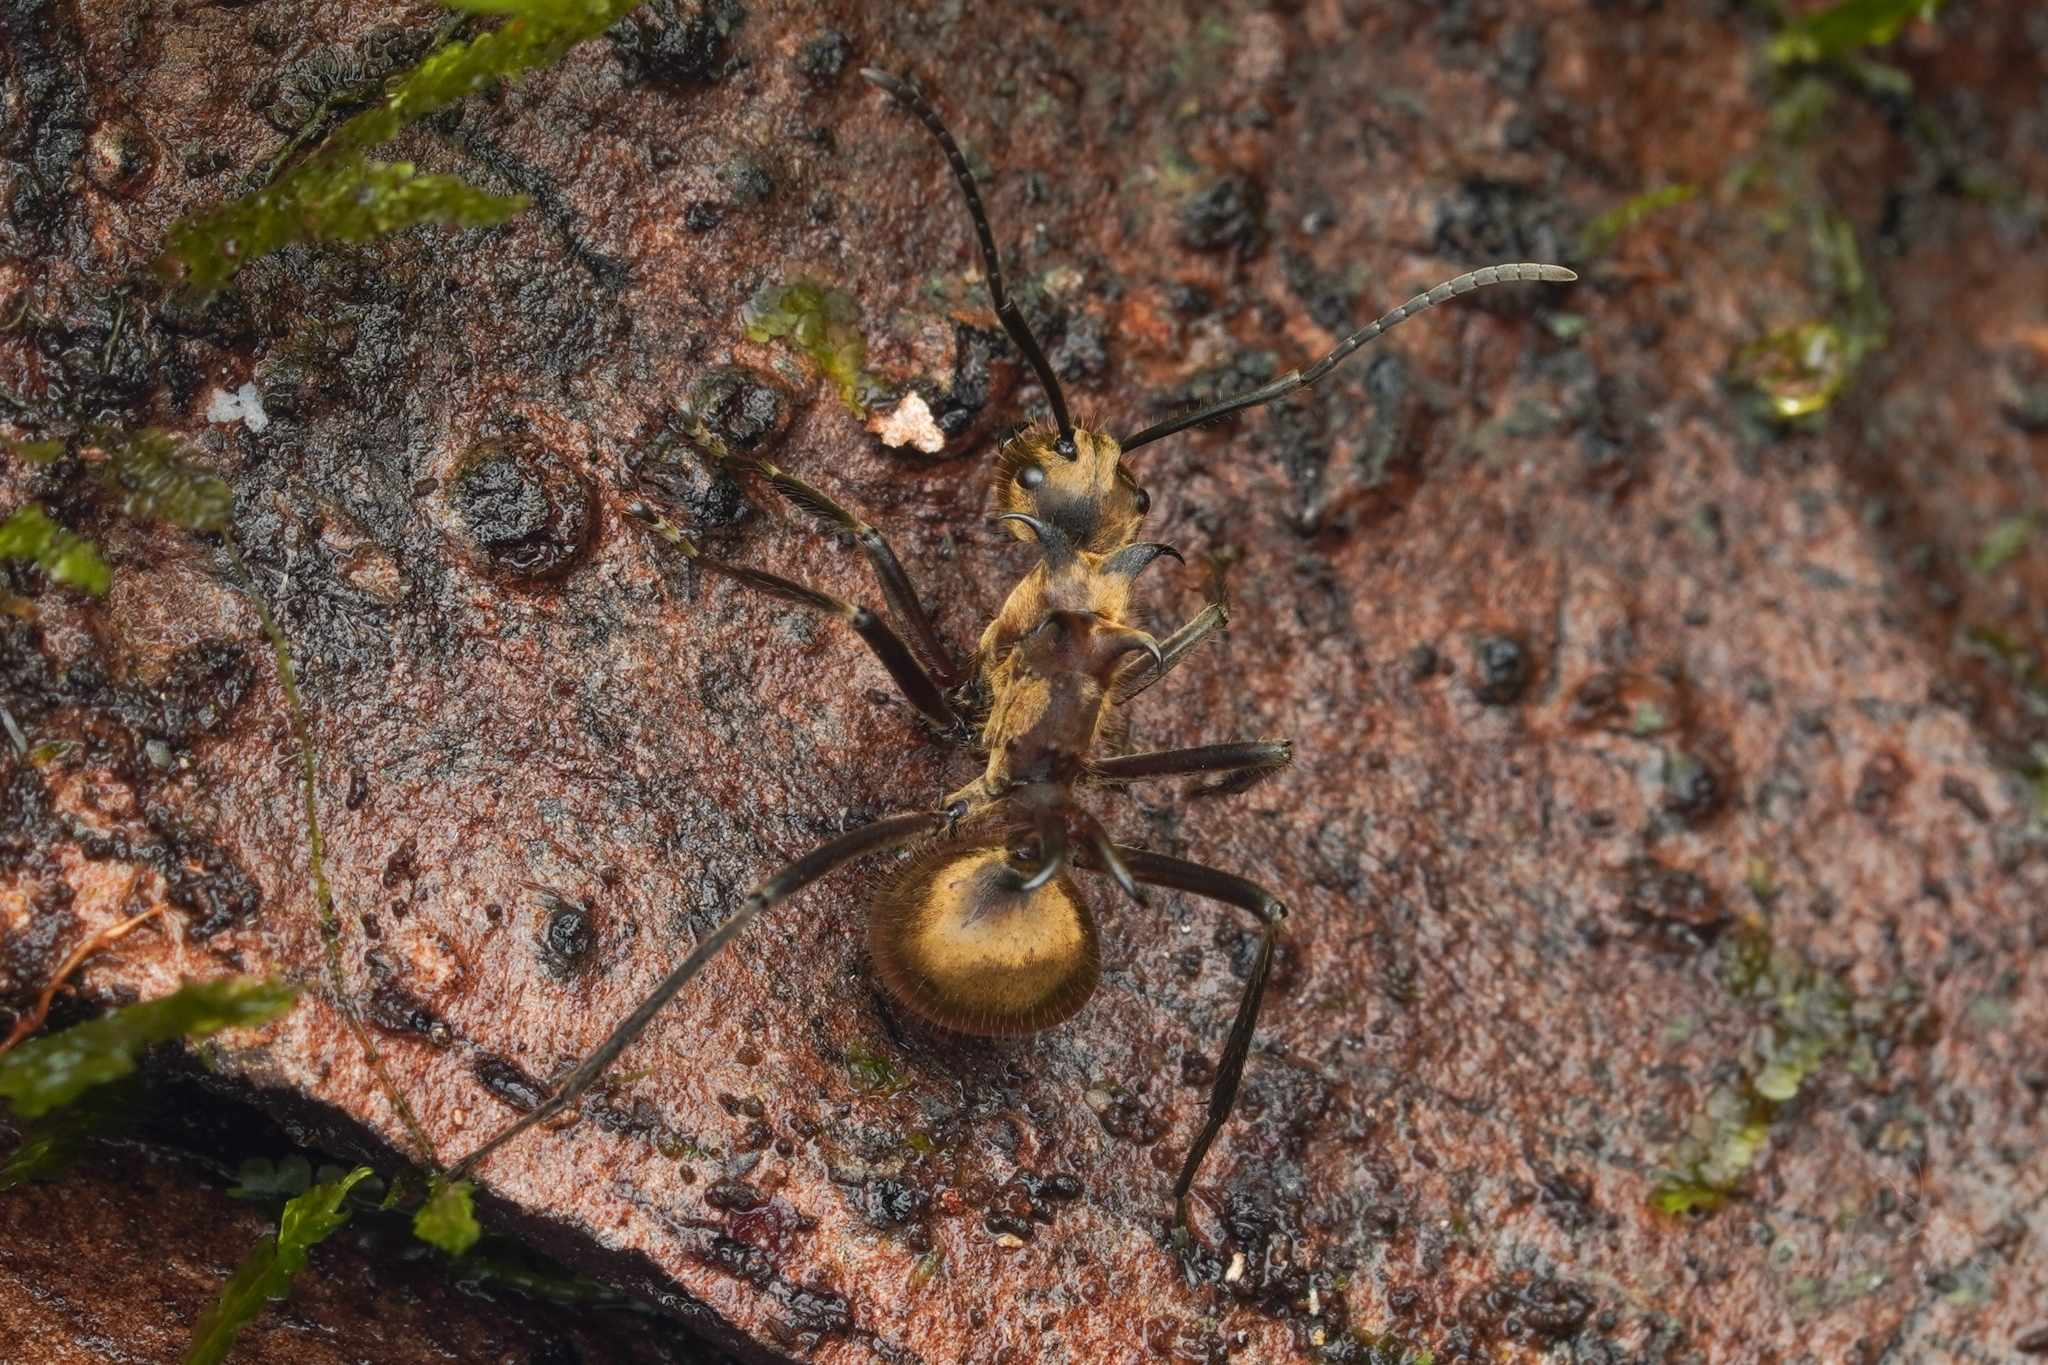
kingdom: Animalia
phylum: Arthropoda
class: Insecta
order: Hymenoptera
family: Formicidae
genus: Polyrhachis
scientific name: Polyrhachis ypsilon
